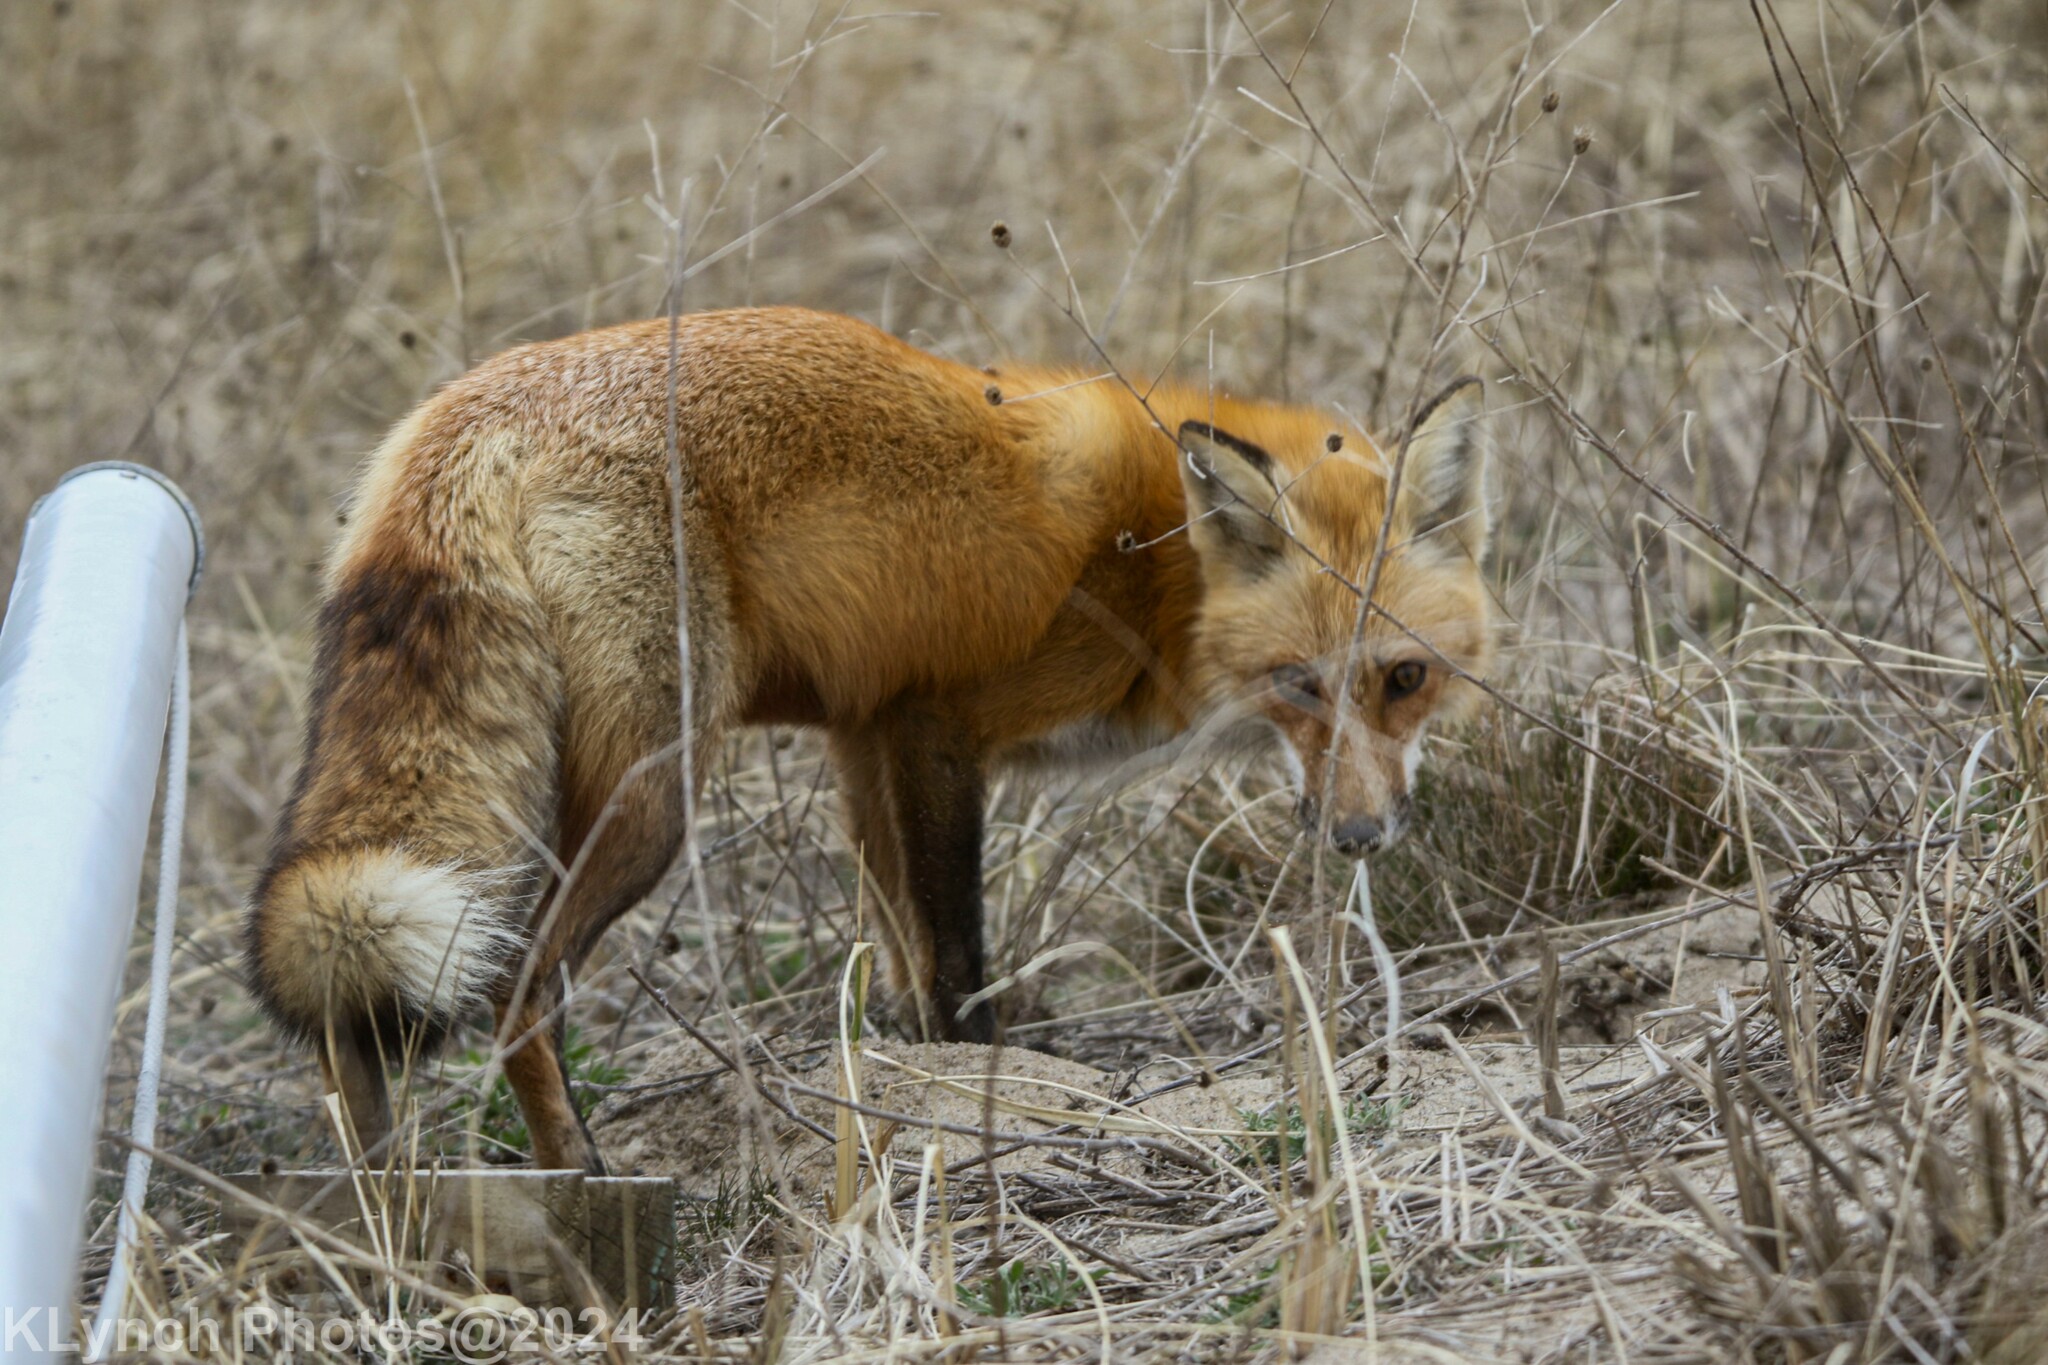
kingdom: Animalia
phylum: Chordata
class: Mammalia
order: Carnivora
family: Canidae
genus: Vulpes
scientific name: Vulpes vulpes
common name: Red fox
